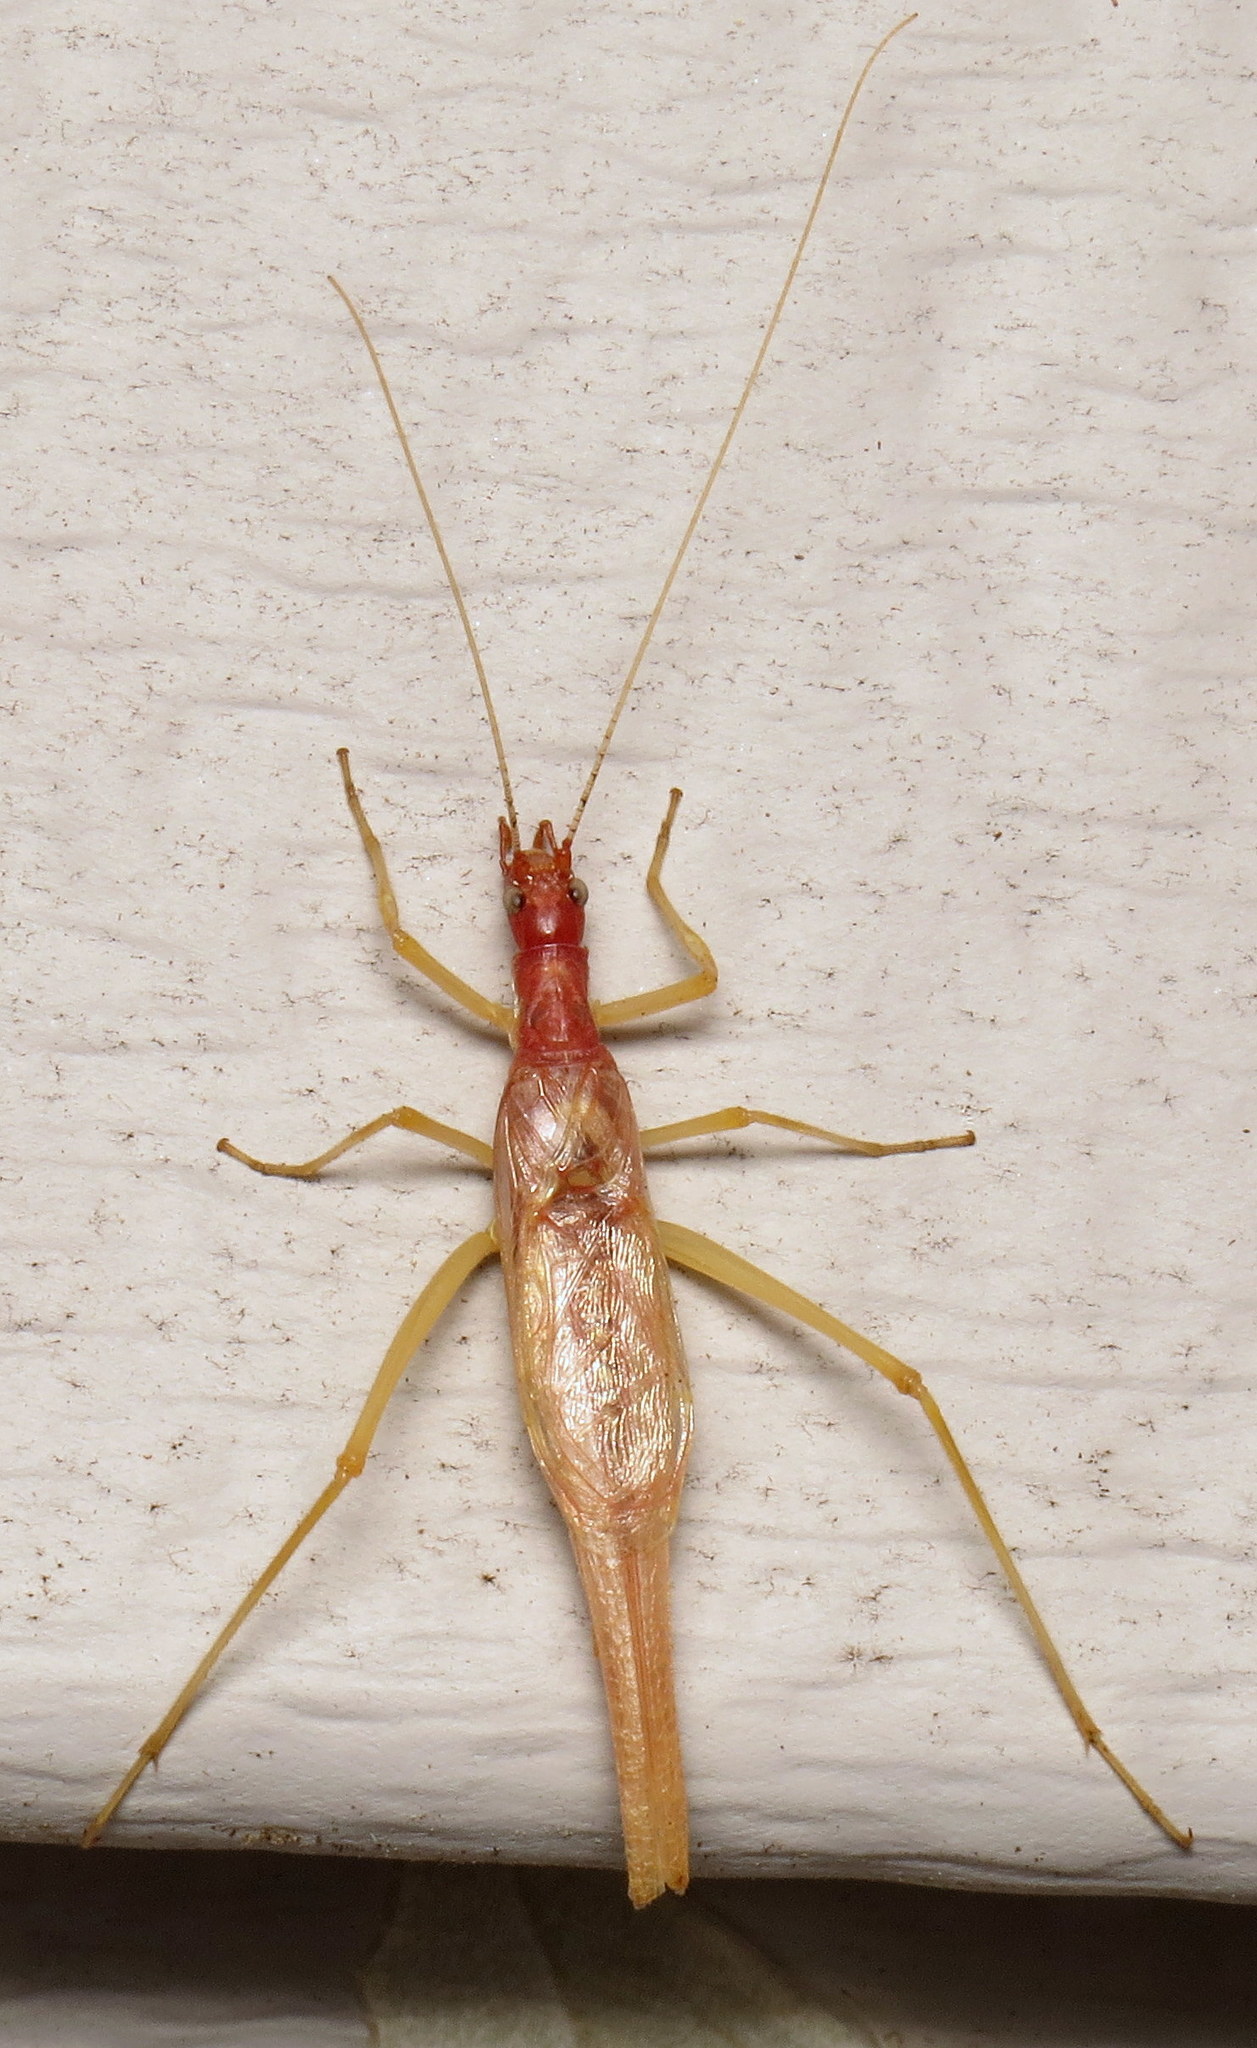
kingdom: Animalia
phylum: Arthropoda
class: Insecta
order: Orthoptera
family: Gryllidae
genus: Neoxabea
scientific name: Neoxabea bipunctata
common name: Two-spotted tree cricket
